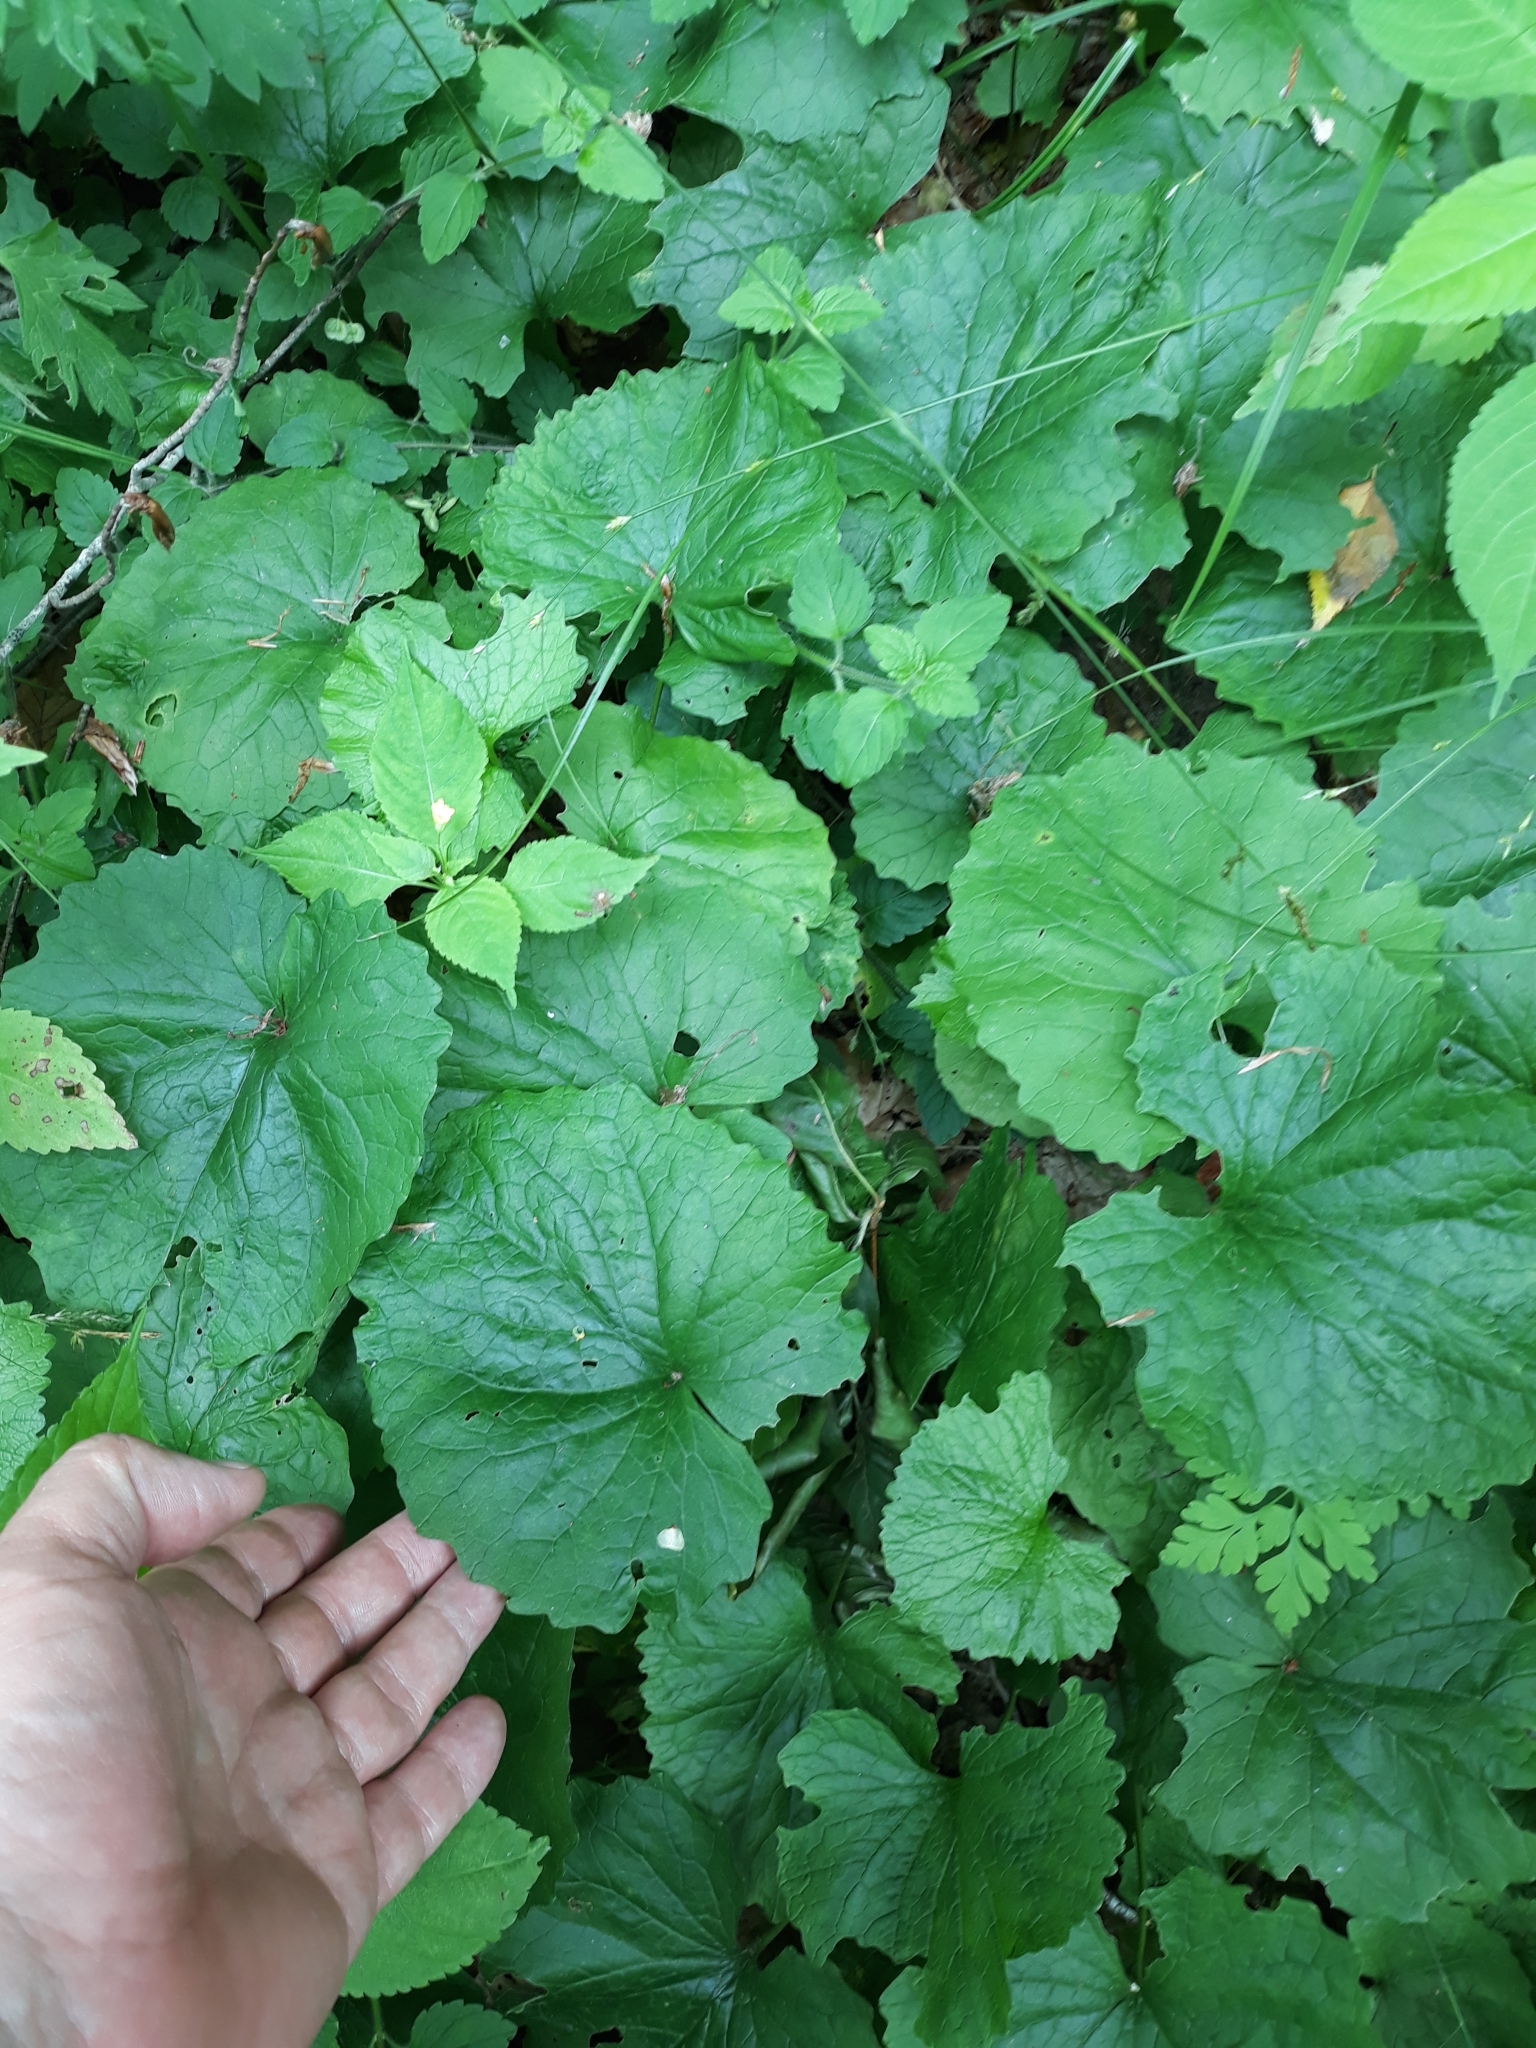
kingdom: Plantae
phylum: Tracheophyta
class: Magnoliopsida
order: Brassicales
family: Brassicaceae
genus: Alliaria
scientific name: Alliaria petiolata
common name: Garlic mustard
